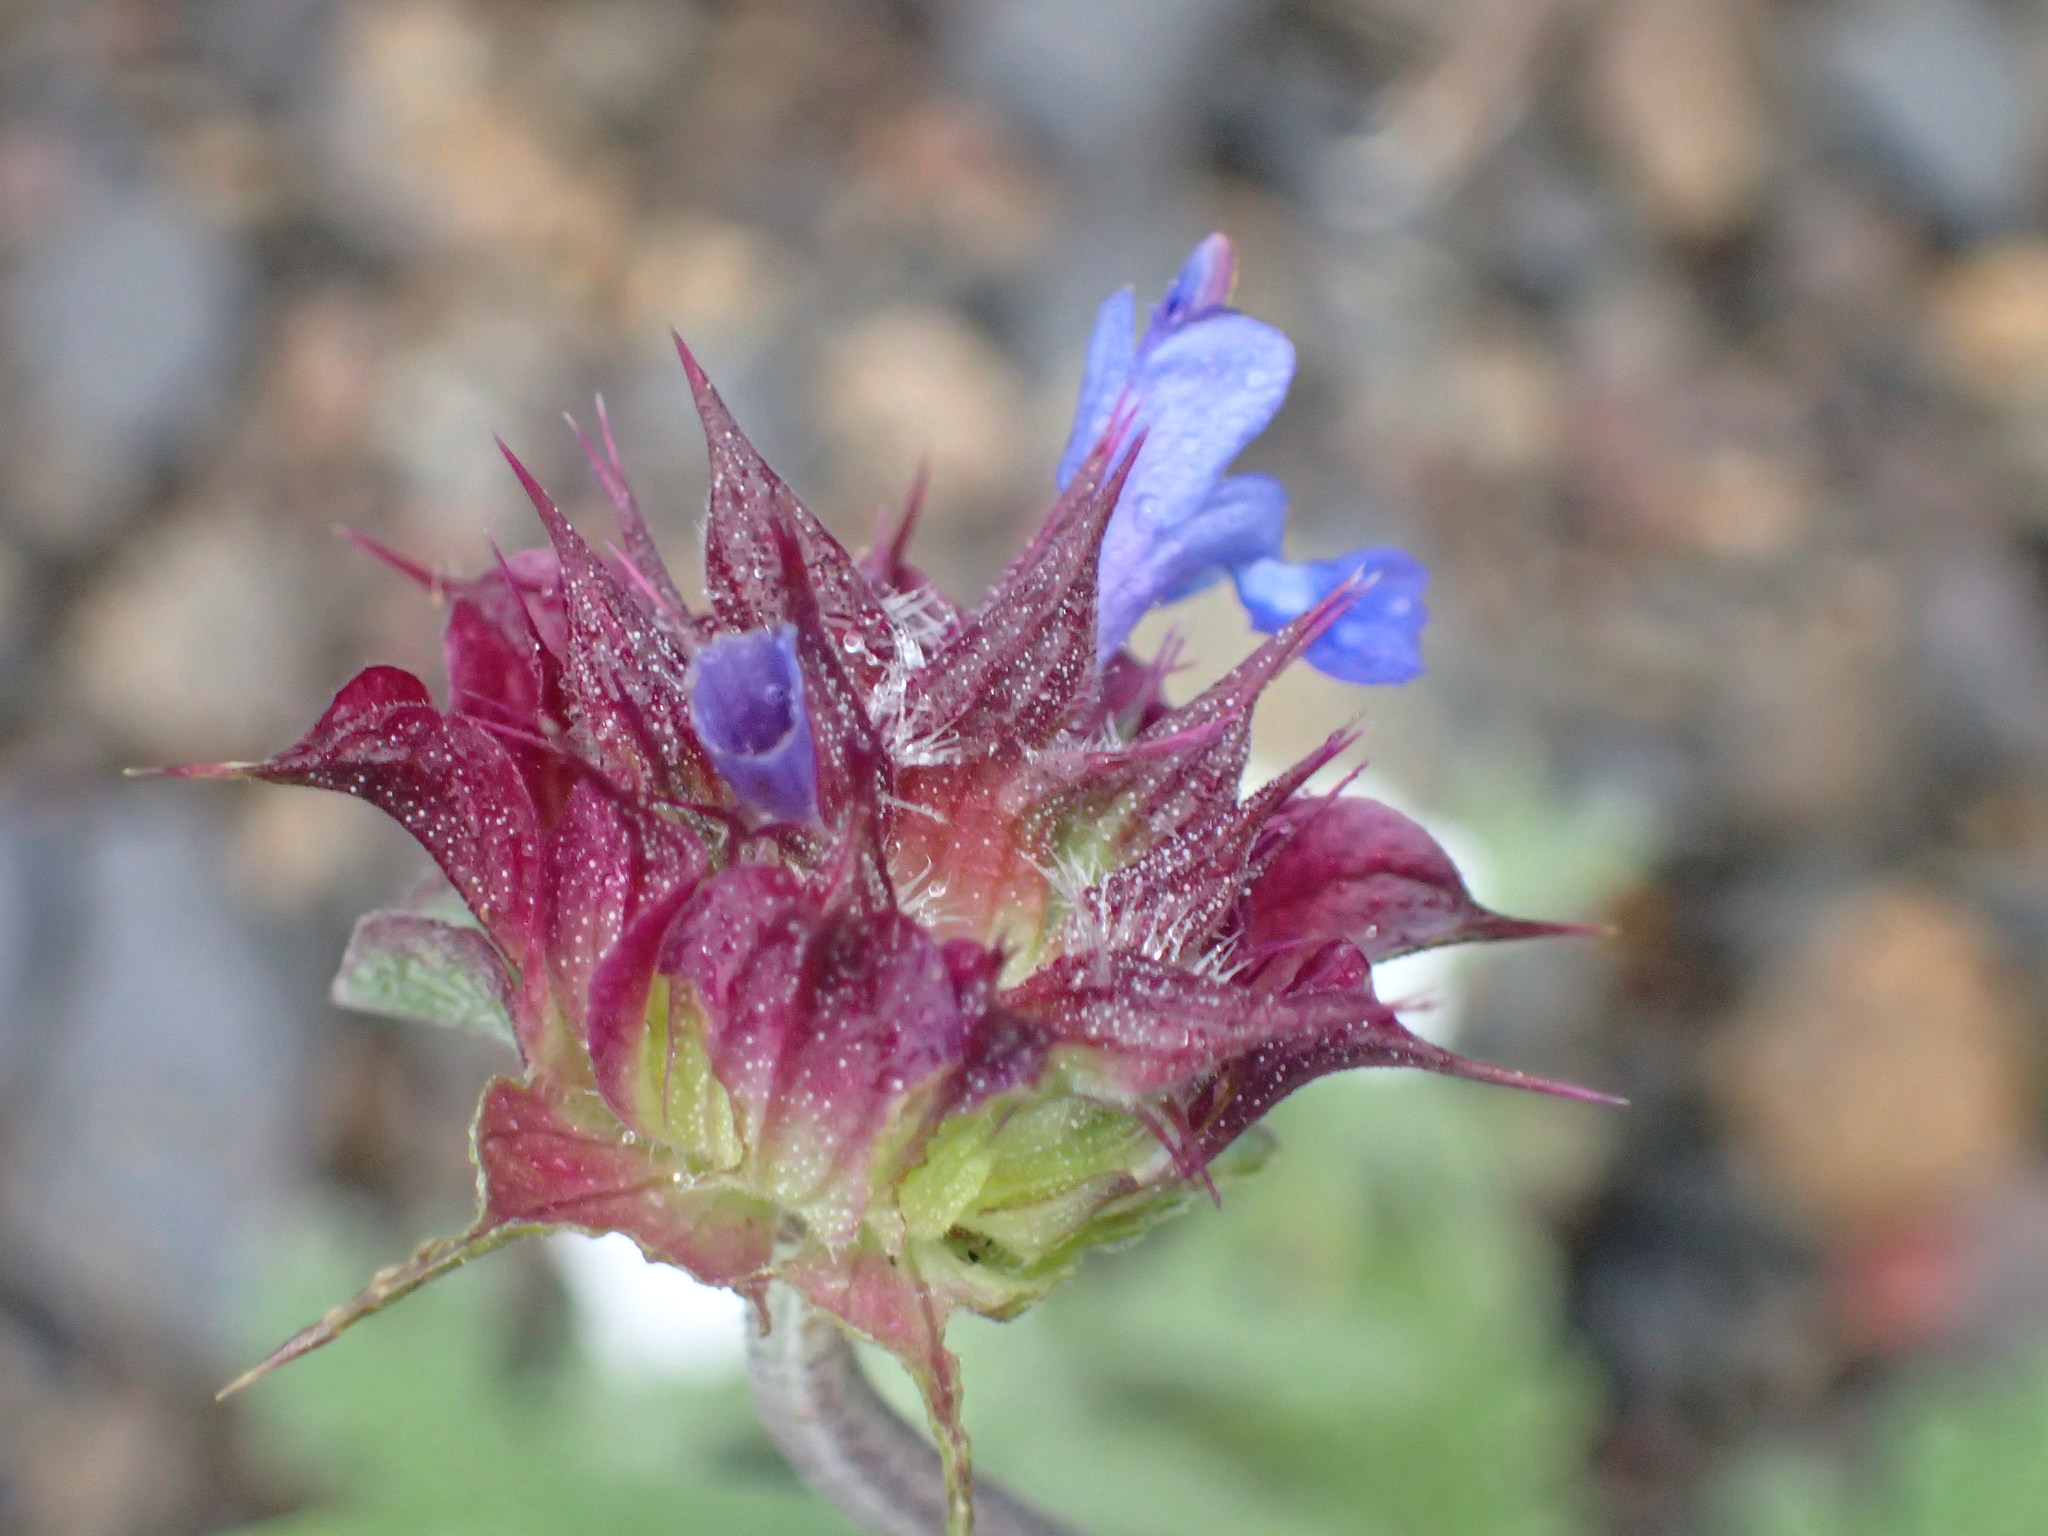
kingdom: Plantae
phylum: Tracheophyta
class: Magnoliopsida
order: Lamiales
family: Lamiaceae
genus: Salvia
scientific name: Salvia columbariae
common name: Chia
